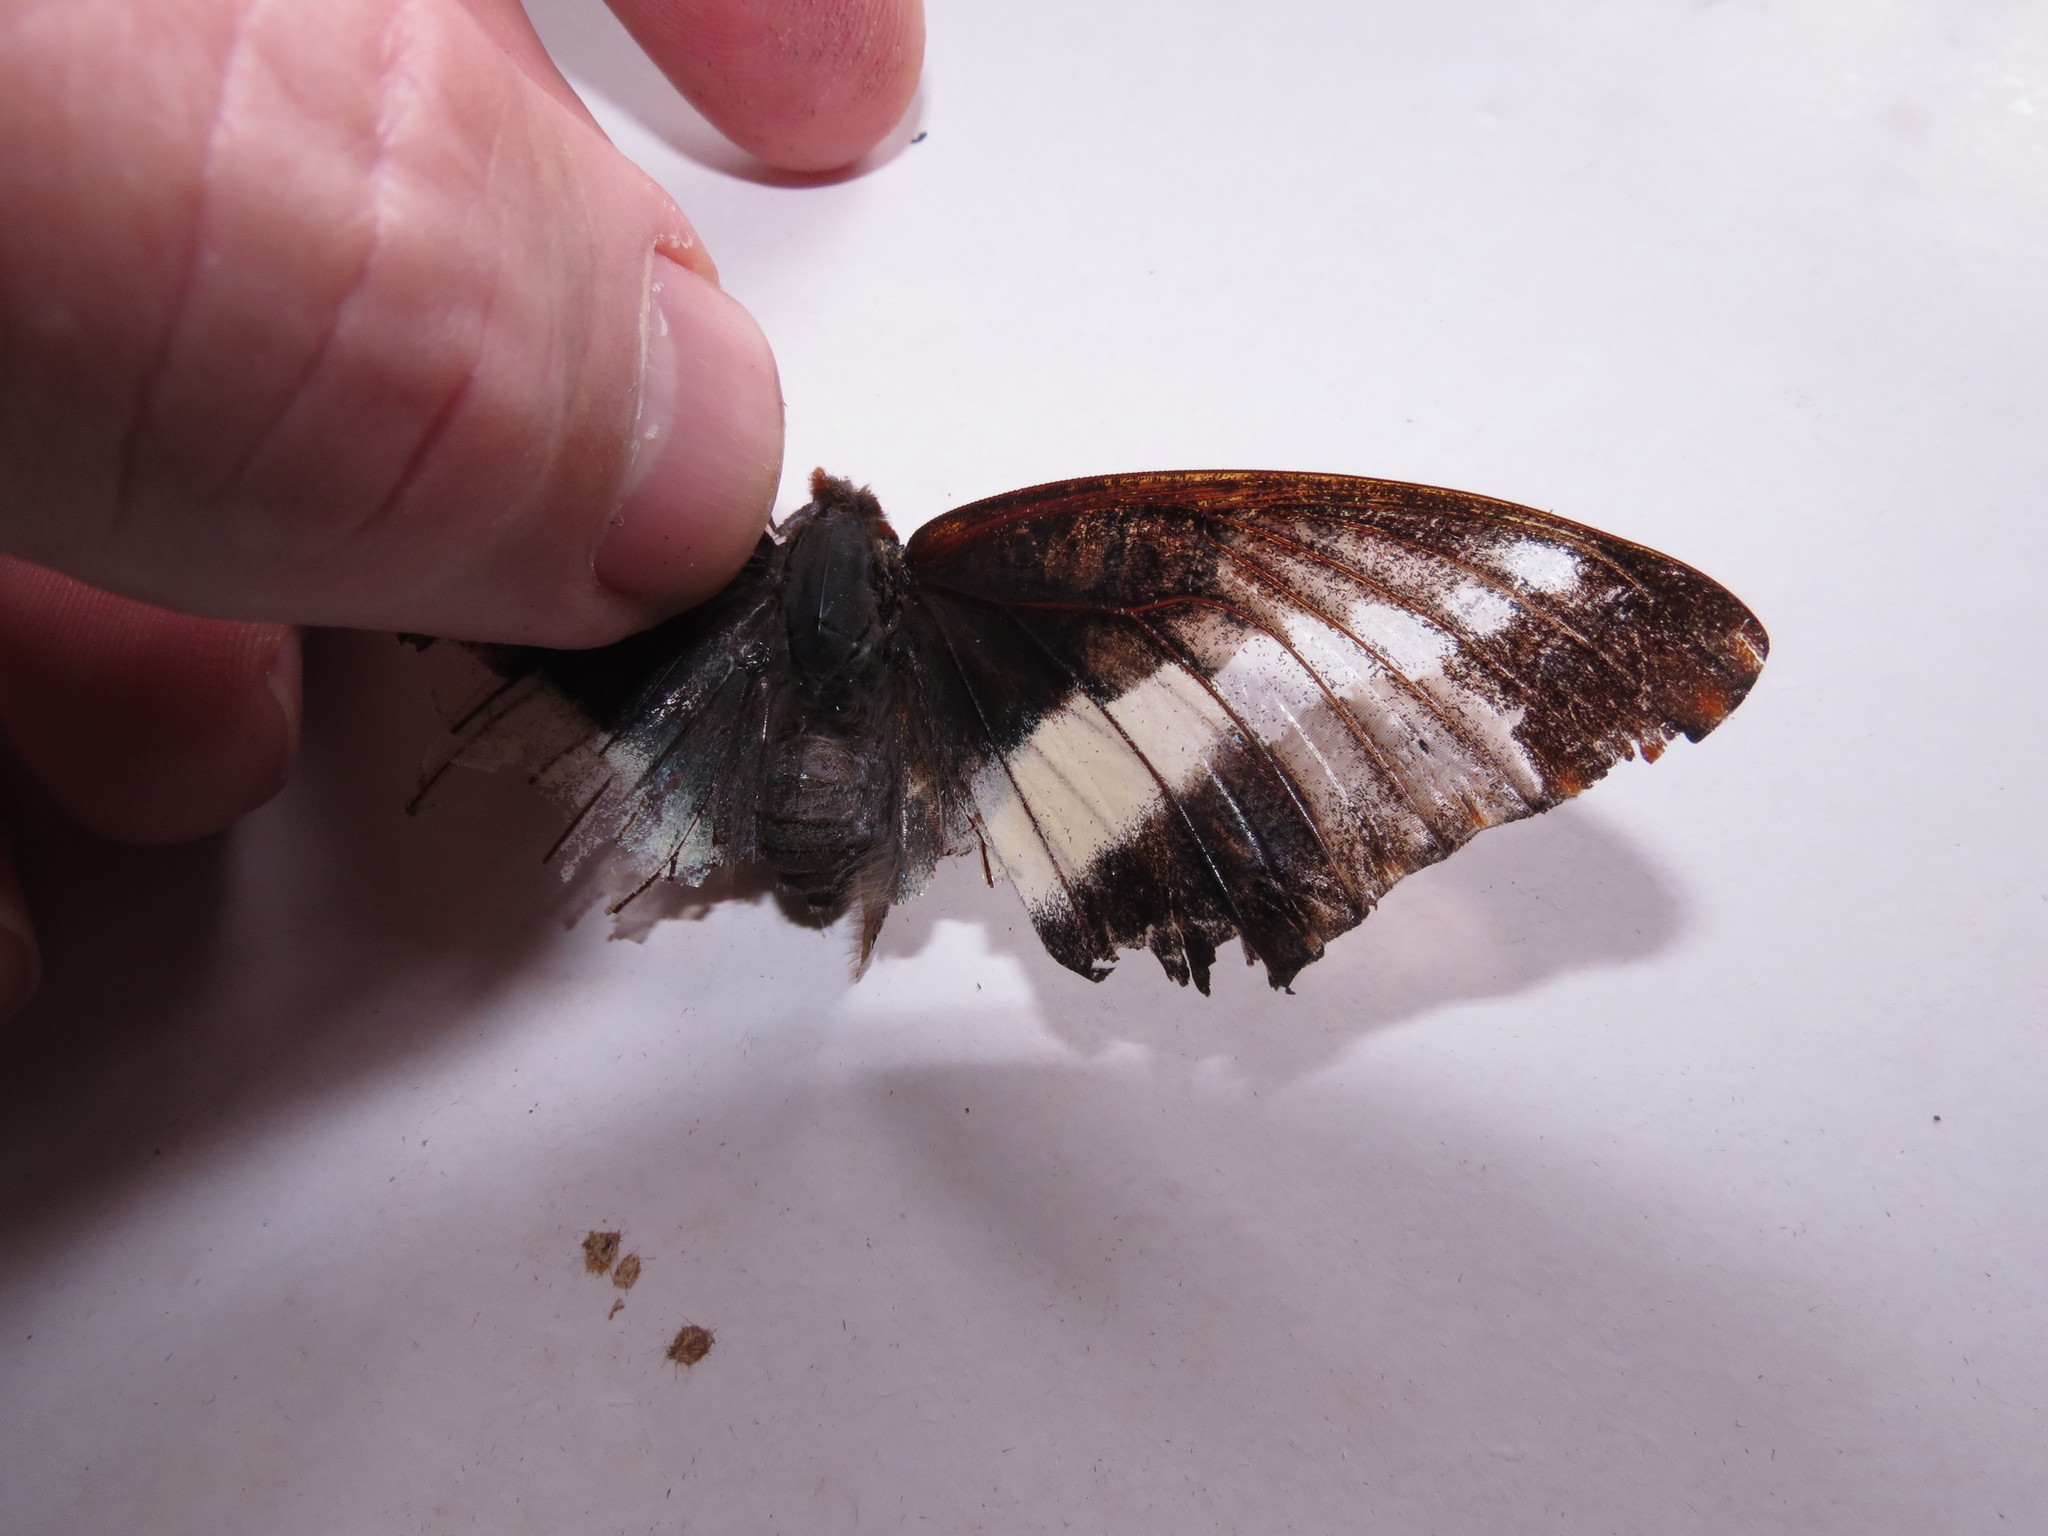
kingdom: Animalia
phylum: Arthropoda
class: Insecta
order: Lepidoptera
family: Nymphalidae
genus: Charaxes
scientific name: Charaxes brutus
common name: White-barred charaxes
